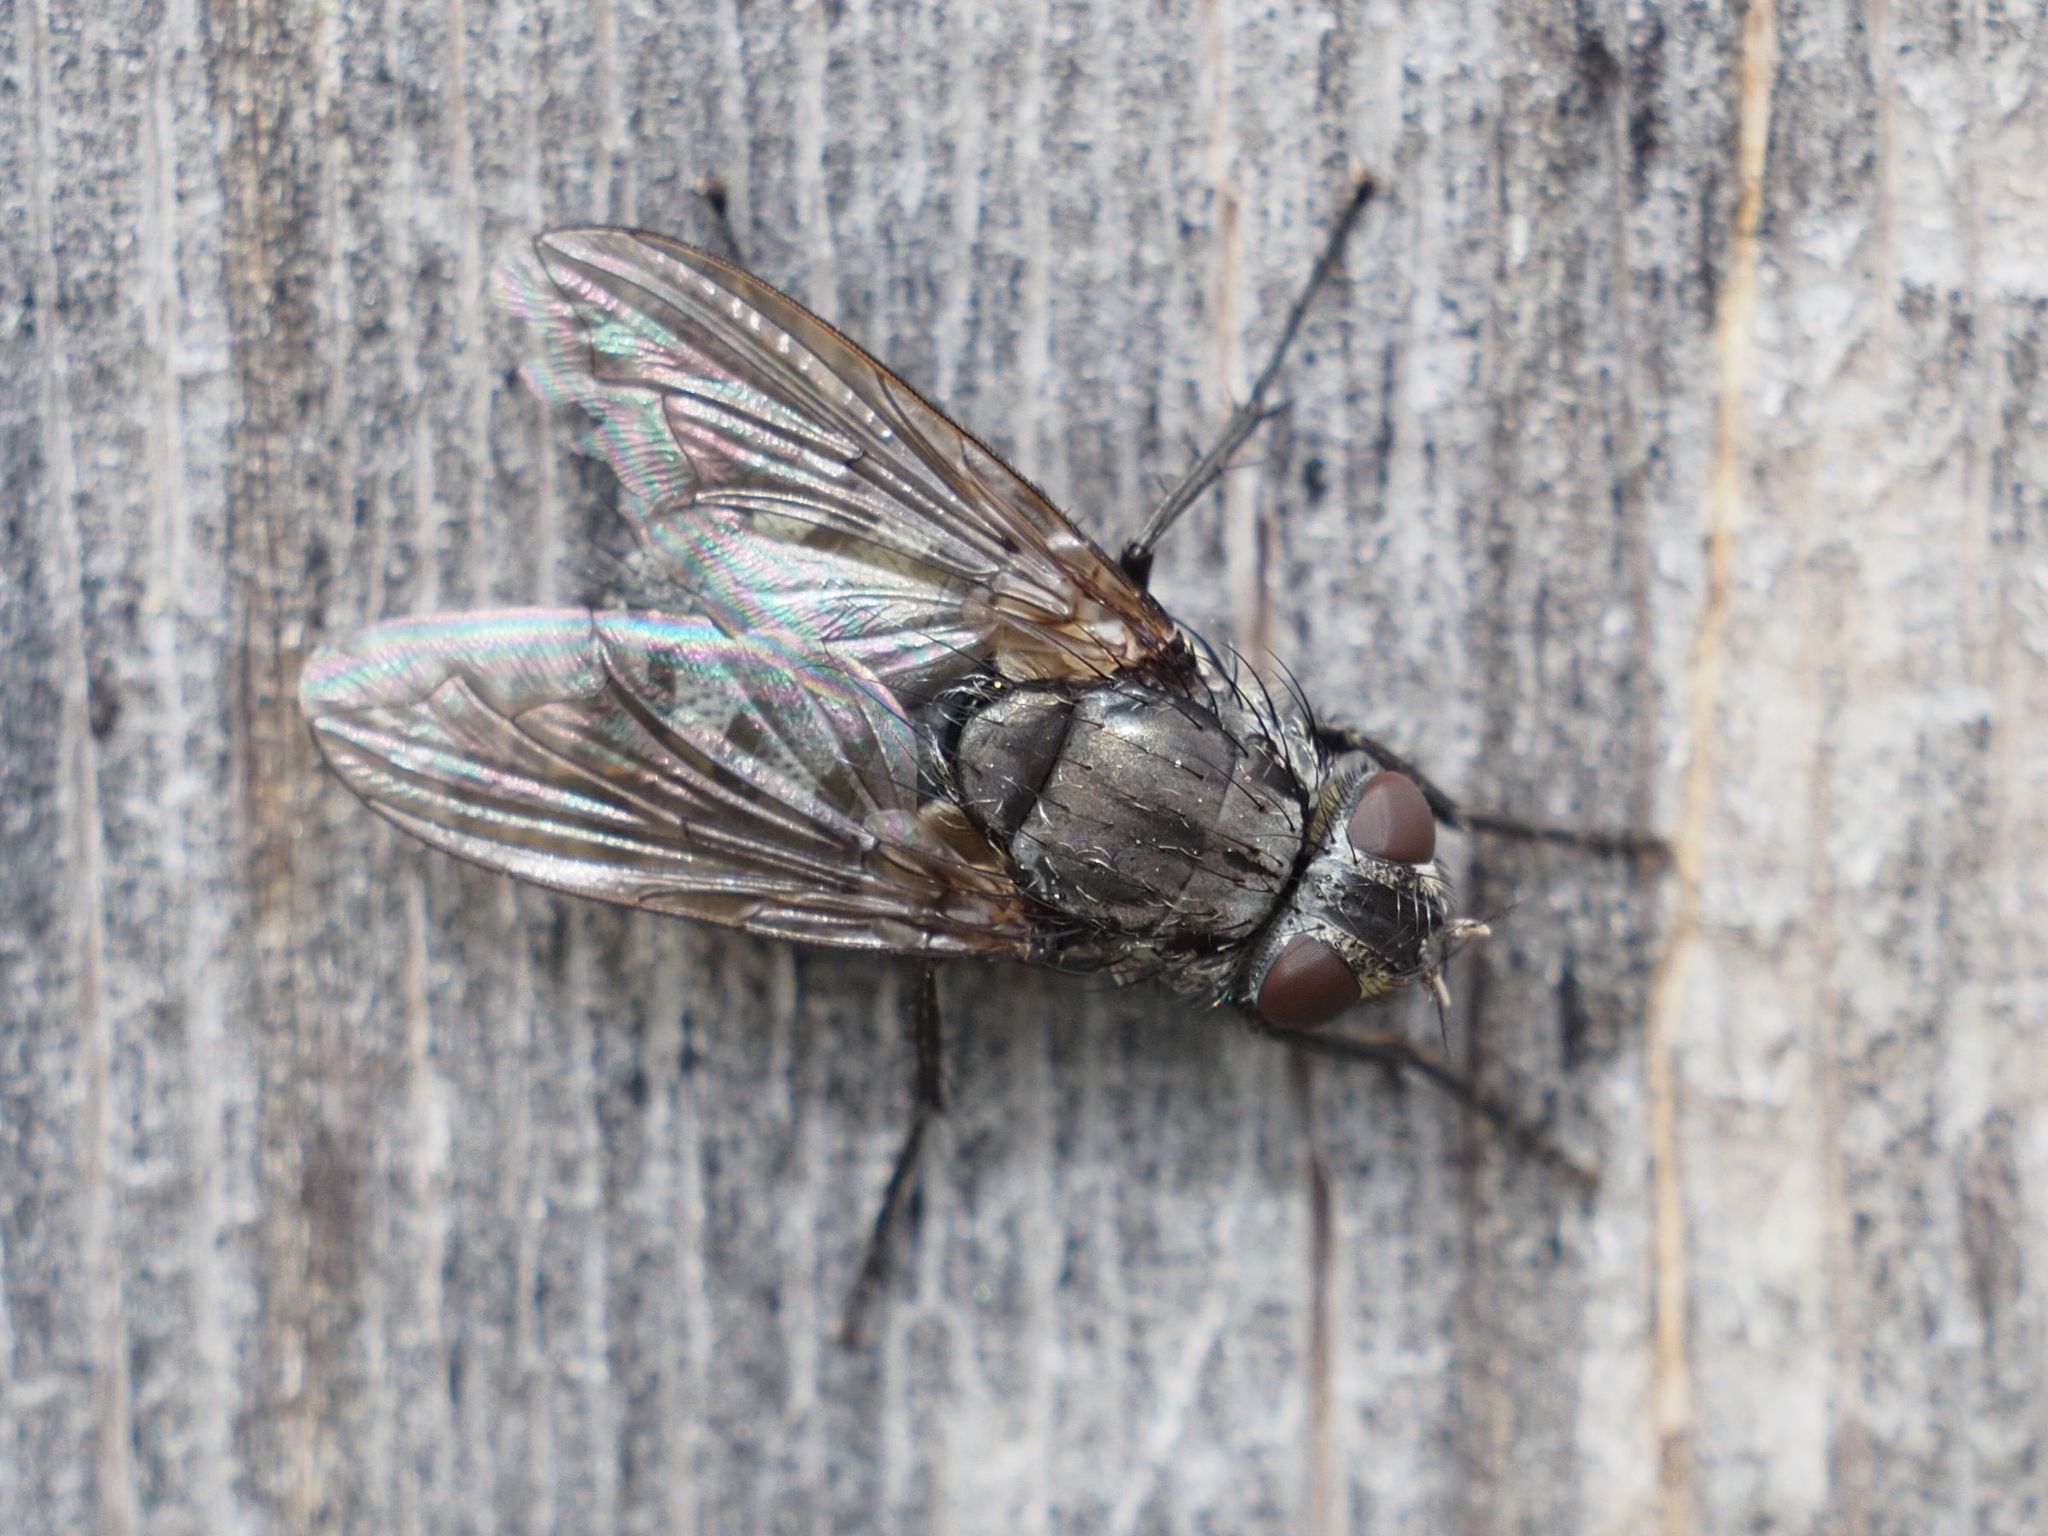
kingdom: Animalia
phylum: Arthropoda
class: Insecta
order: Diptera
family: Polleniidae
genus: Pollenia
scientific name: Pollenia vagabunda
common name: Vagabund cluster fly
